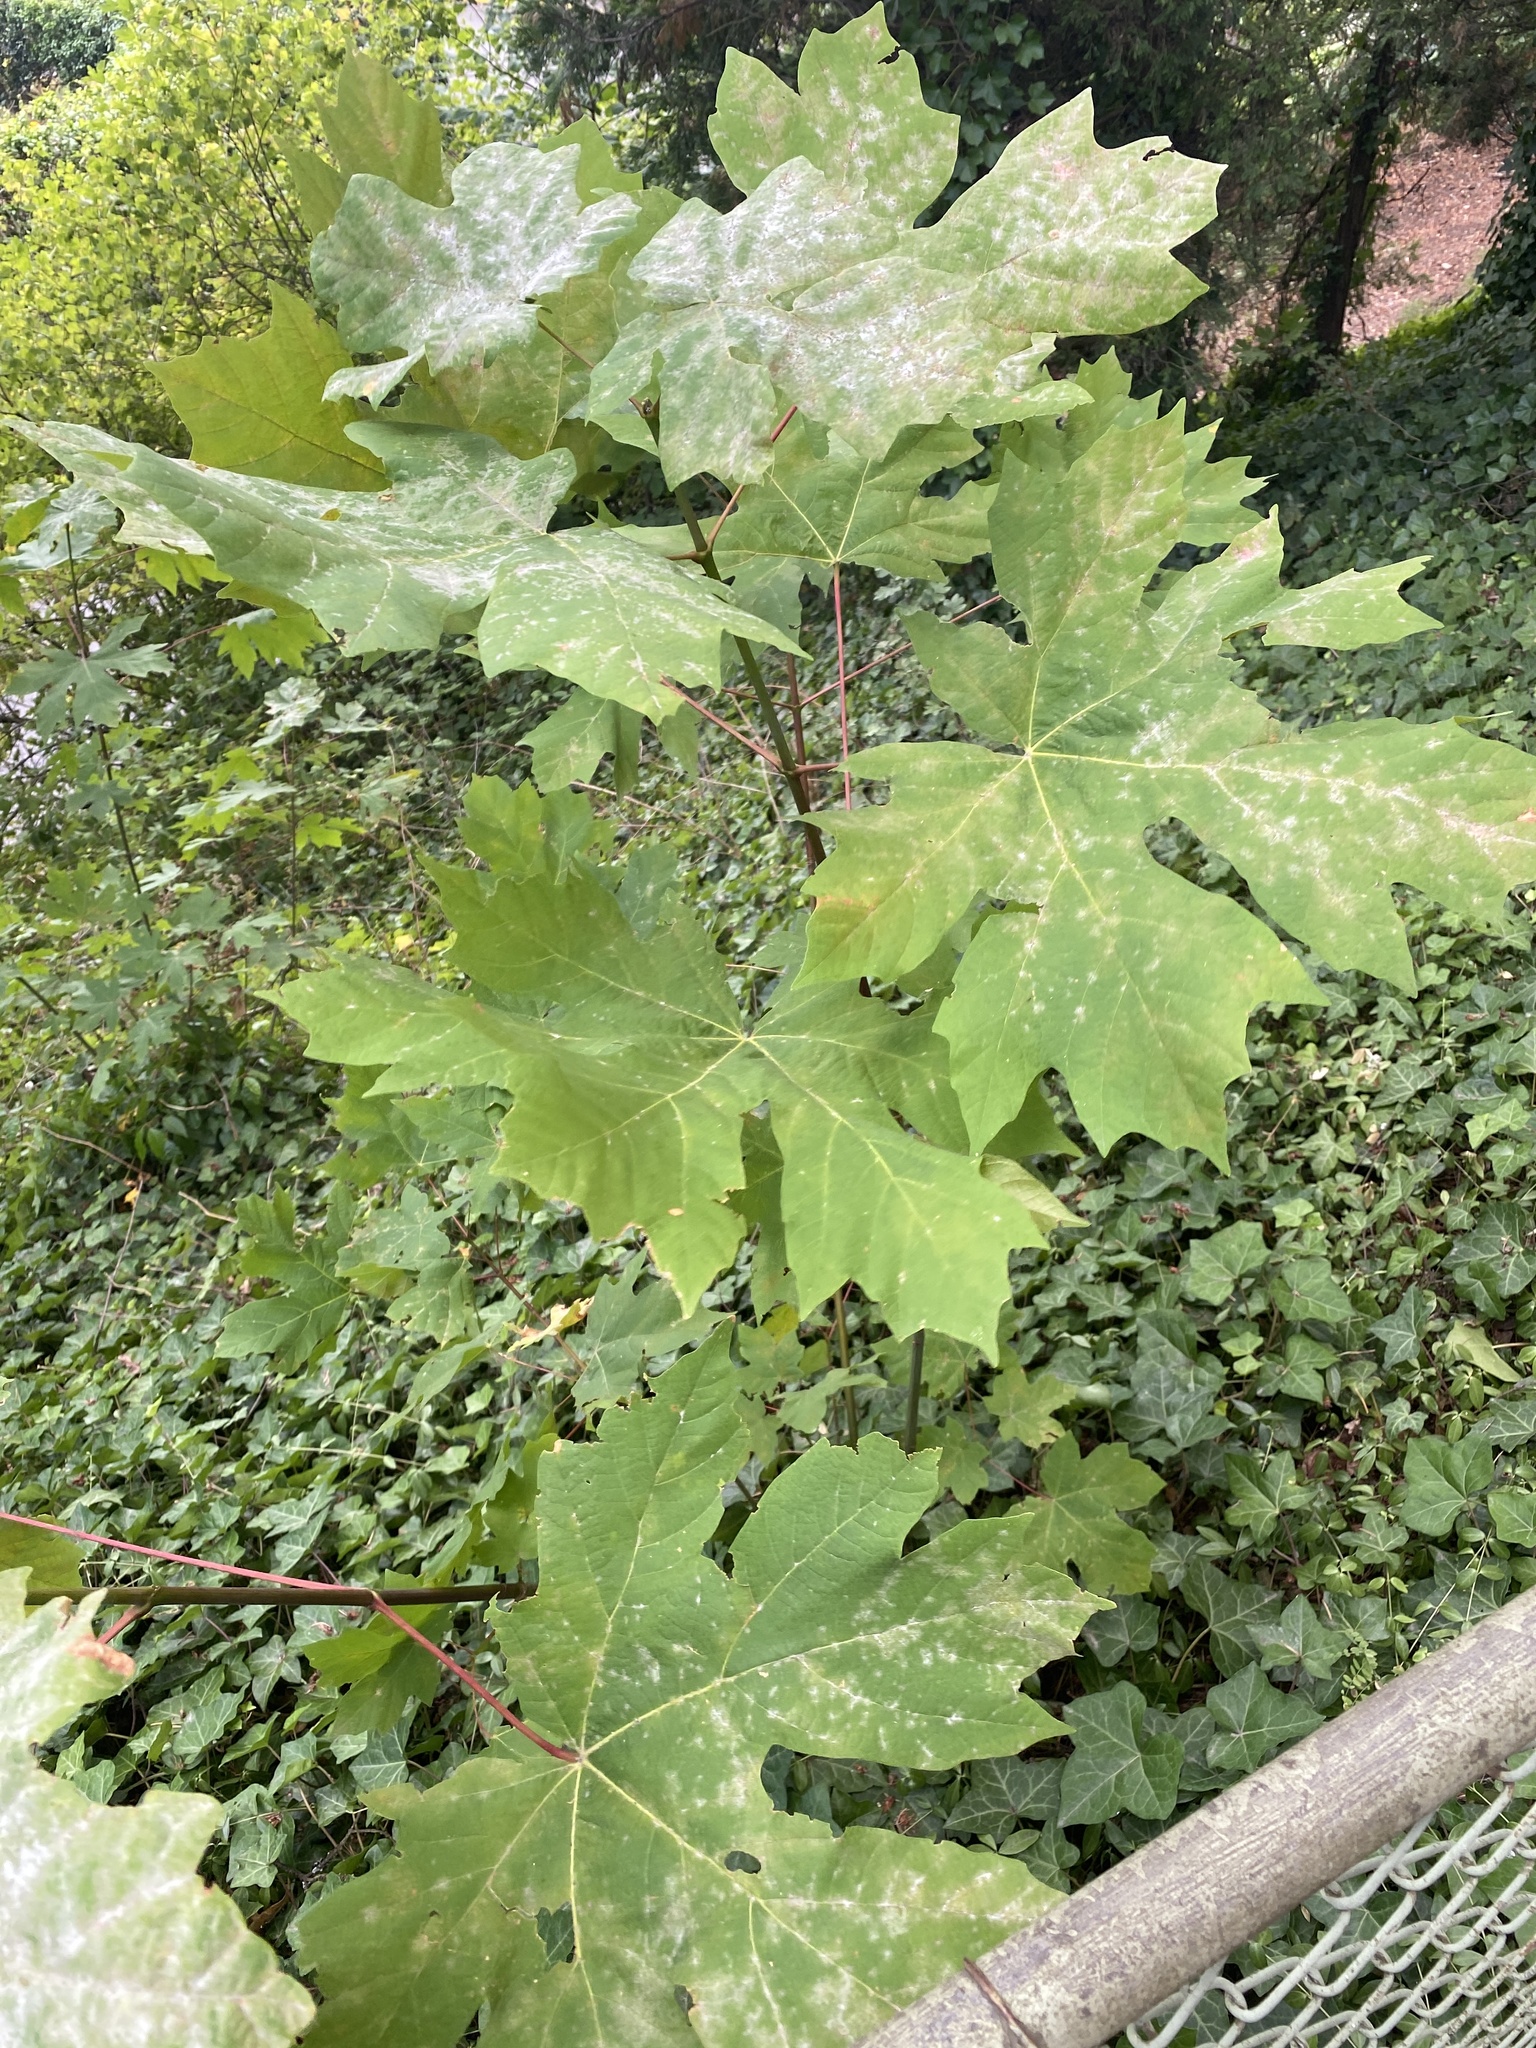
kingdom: Plantae
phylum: Tracheophyta
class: Magnoliopsida
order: Sapindales
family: Sapindaceae
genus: Acer
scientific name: Acer macrophyllum
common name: Oregon maple
